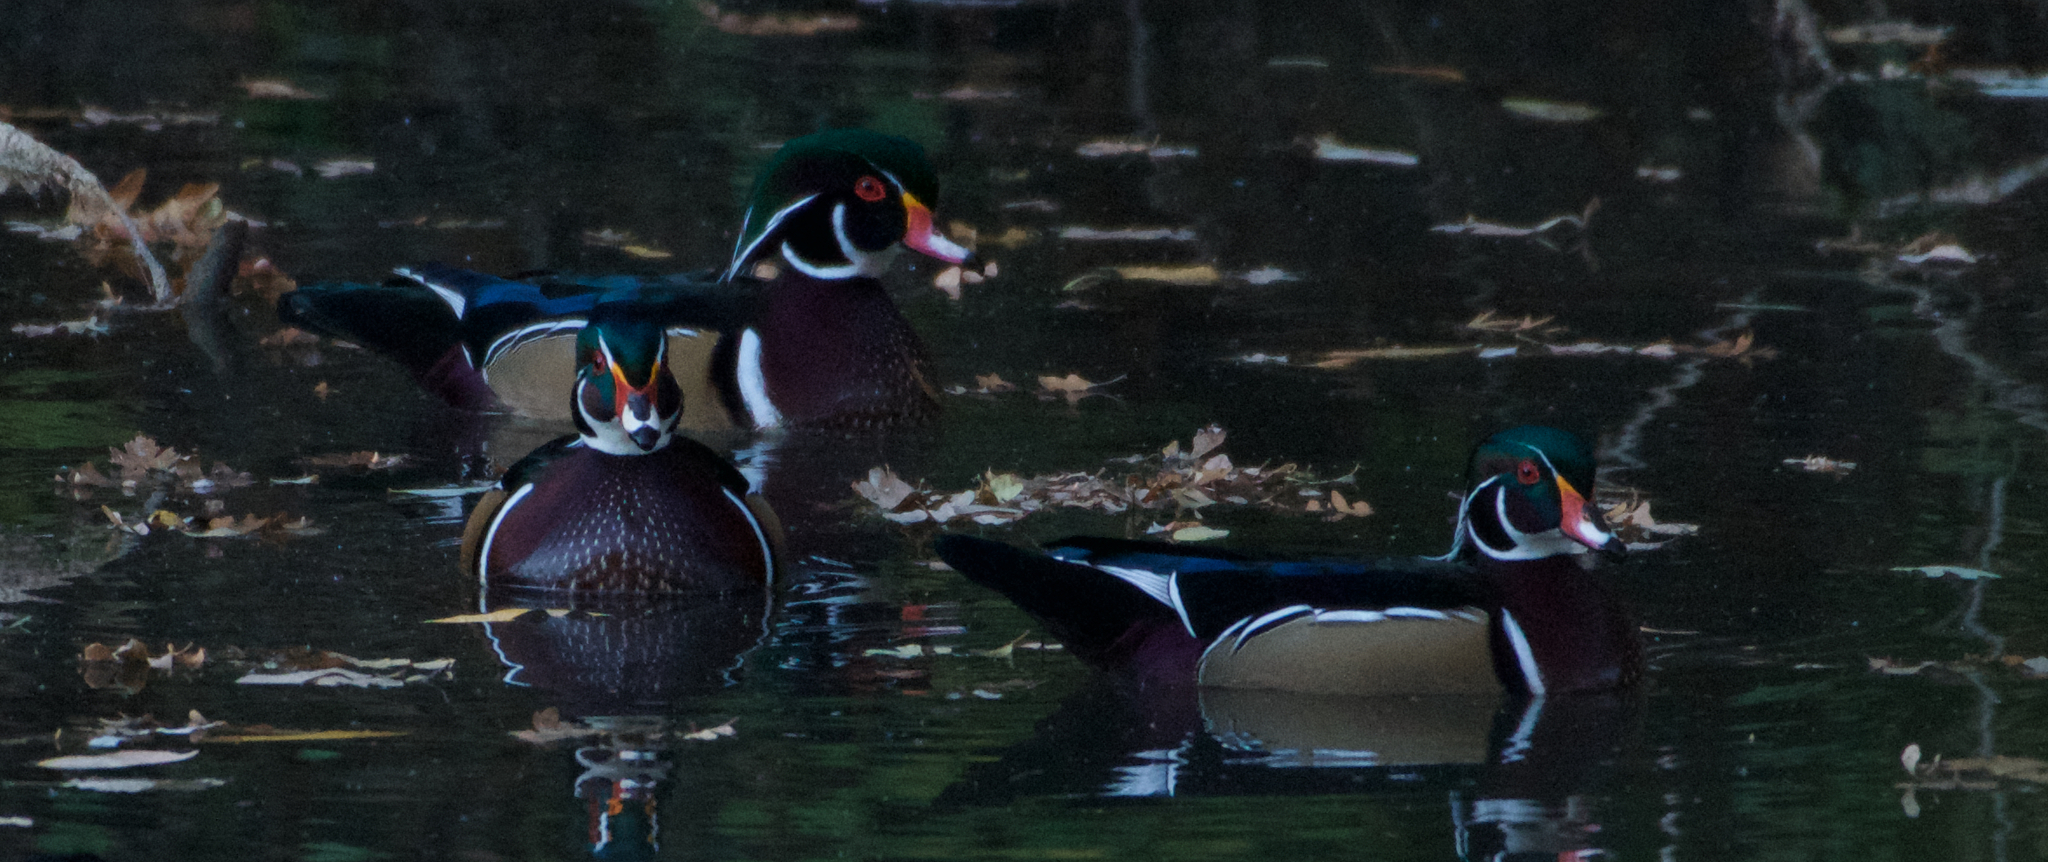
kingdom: Animalia
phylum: Chordata
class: Aves
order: Anseriformes
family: Anatidae
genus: Aix
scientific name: Aix sponsa
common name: Wood duck
